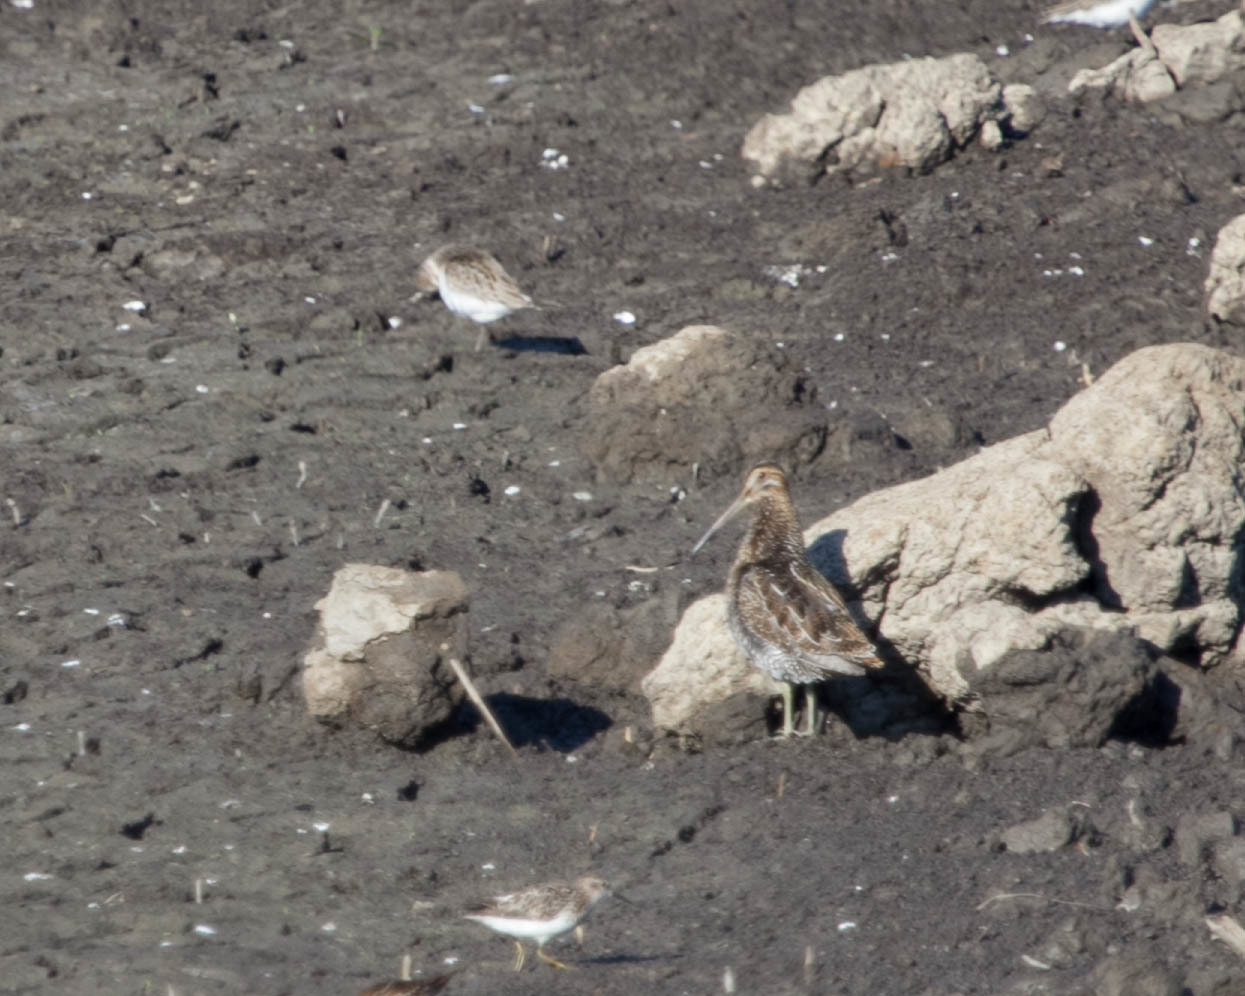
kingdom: Animalia
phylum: Chordata
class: Aves
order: Charadriiformes
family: Scolopacidae
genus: Gallinago
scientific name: Gallinago delicata
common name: Wilson's snipe
